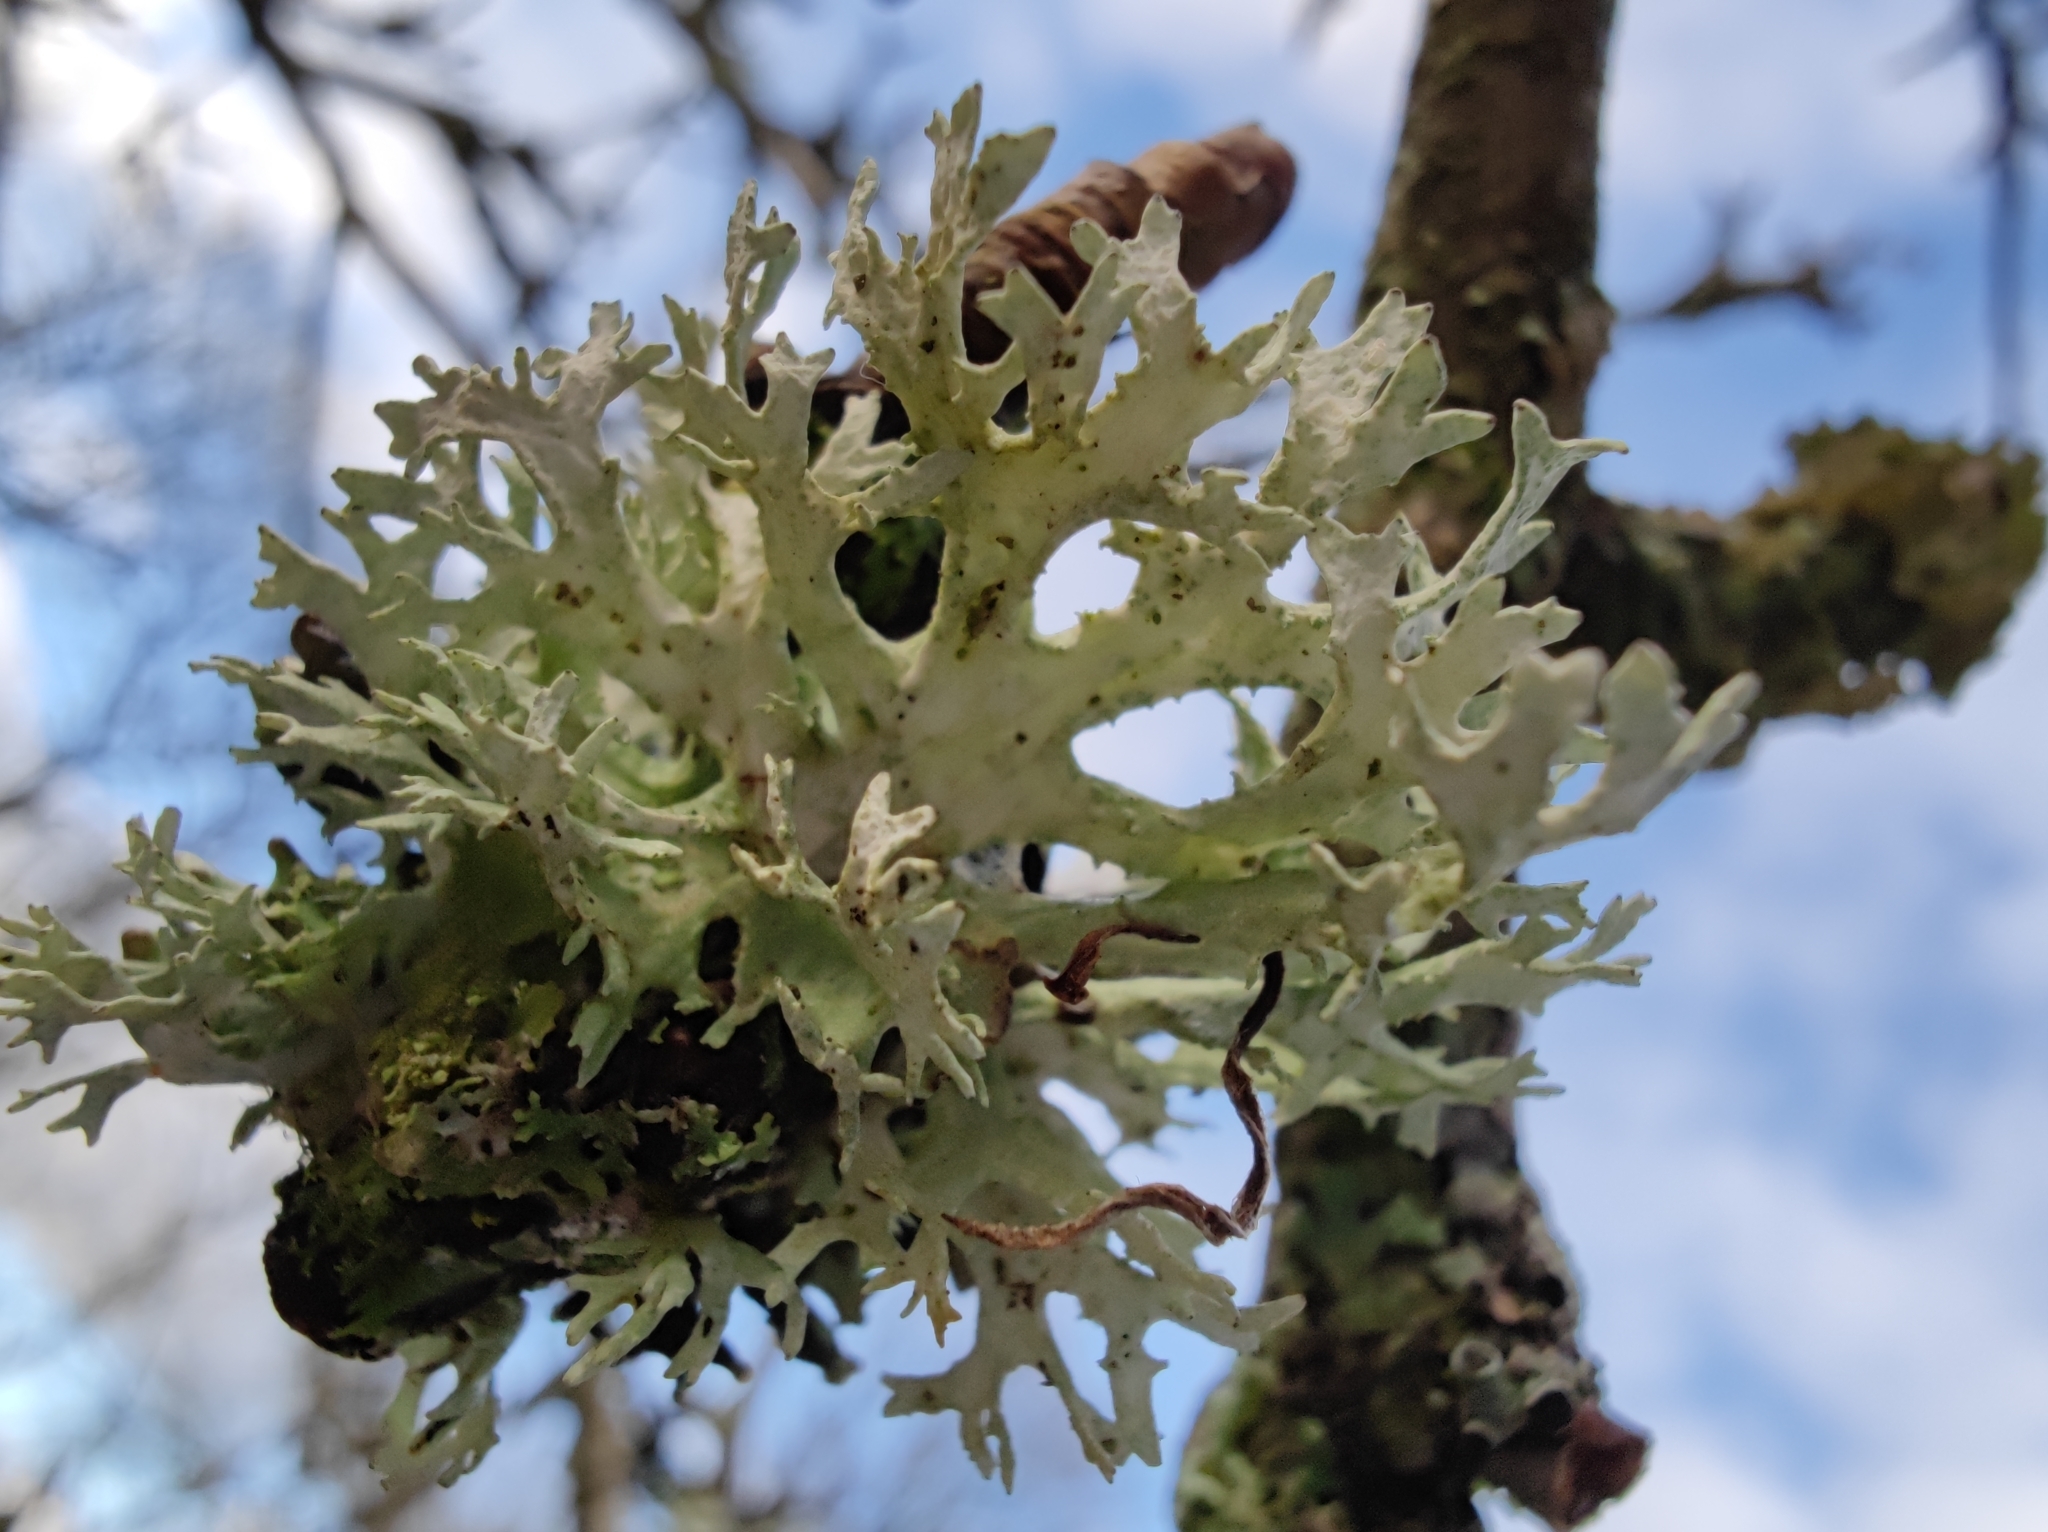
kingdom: Fungi
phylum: Ascomycota
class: Lecanoromycetes
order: Lecanorales
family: Parmeliaceae
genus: Evernia
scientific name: Evernia prunastri
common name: Oak moss
